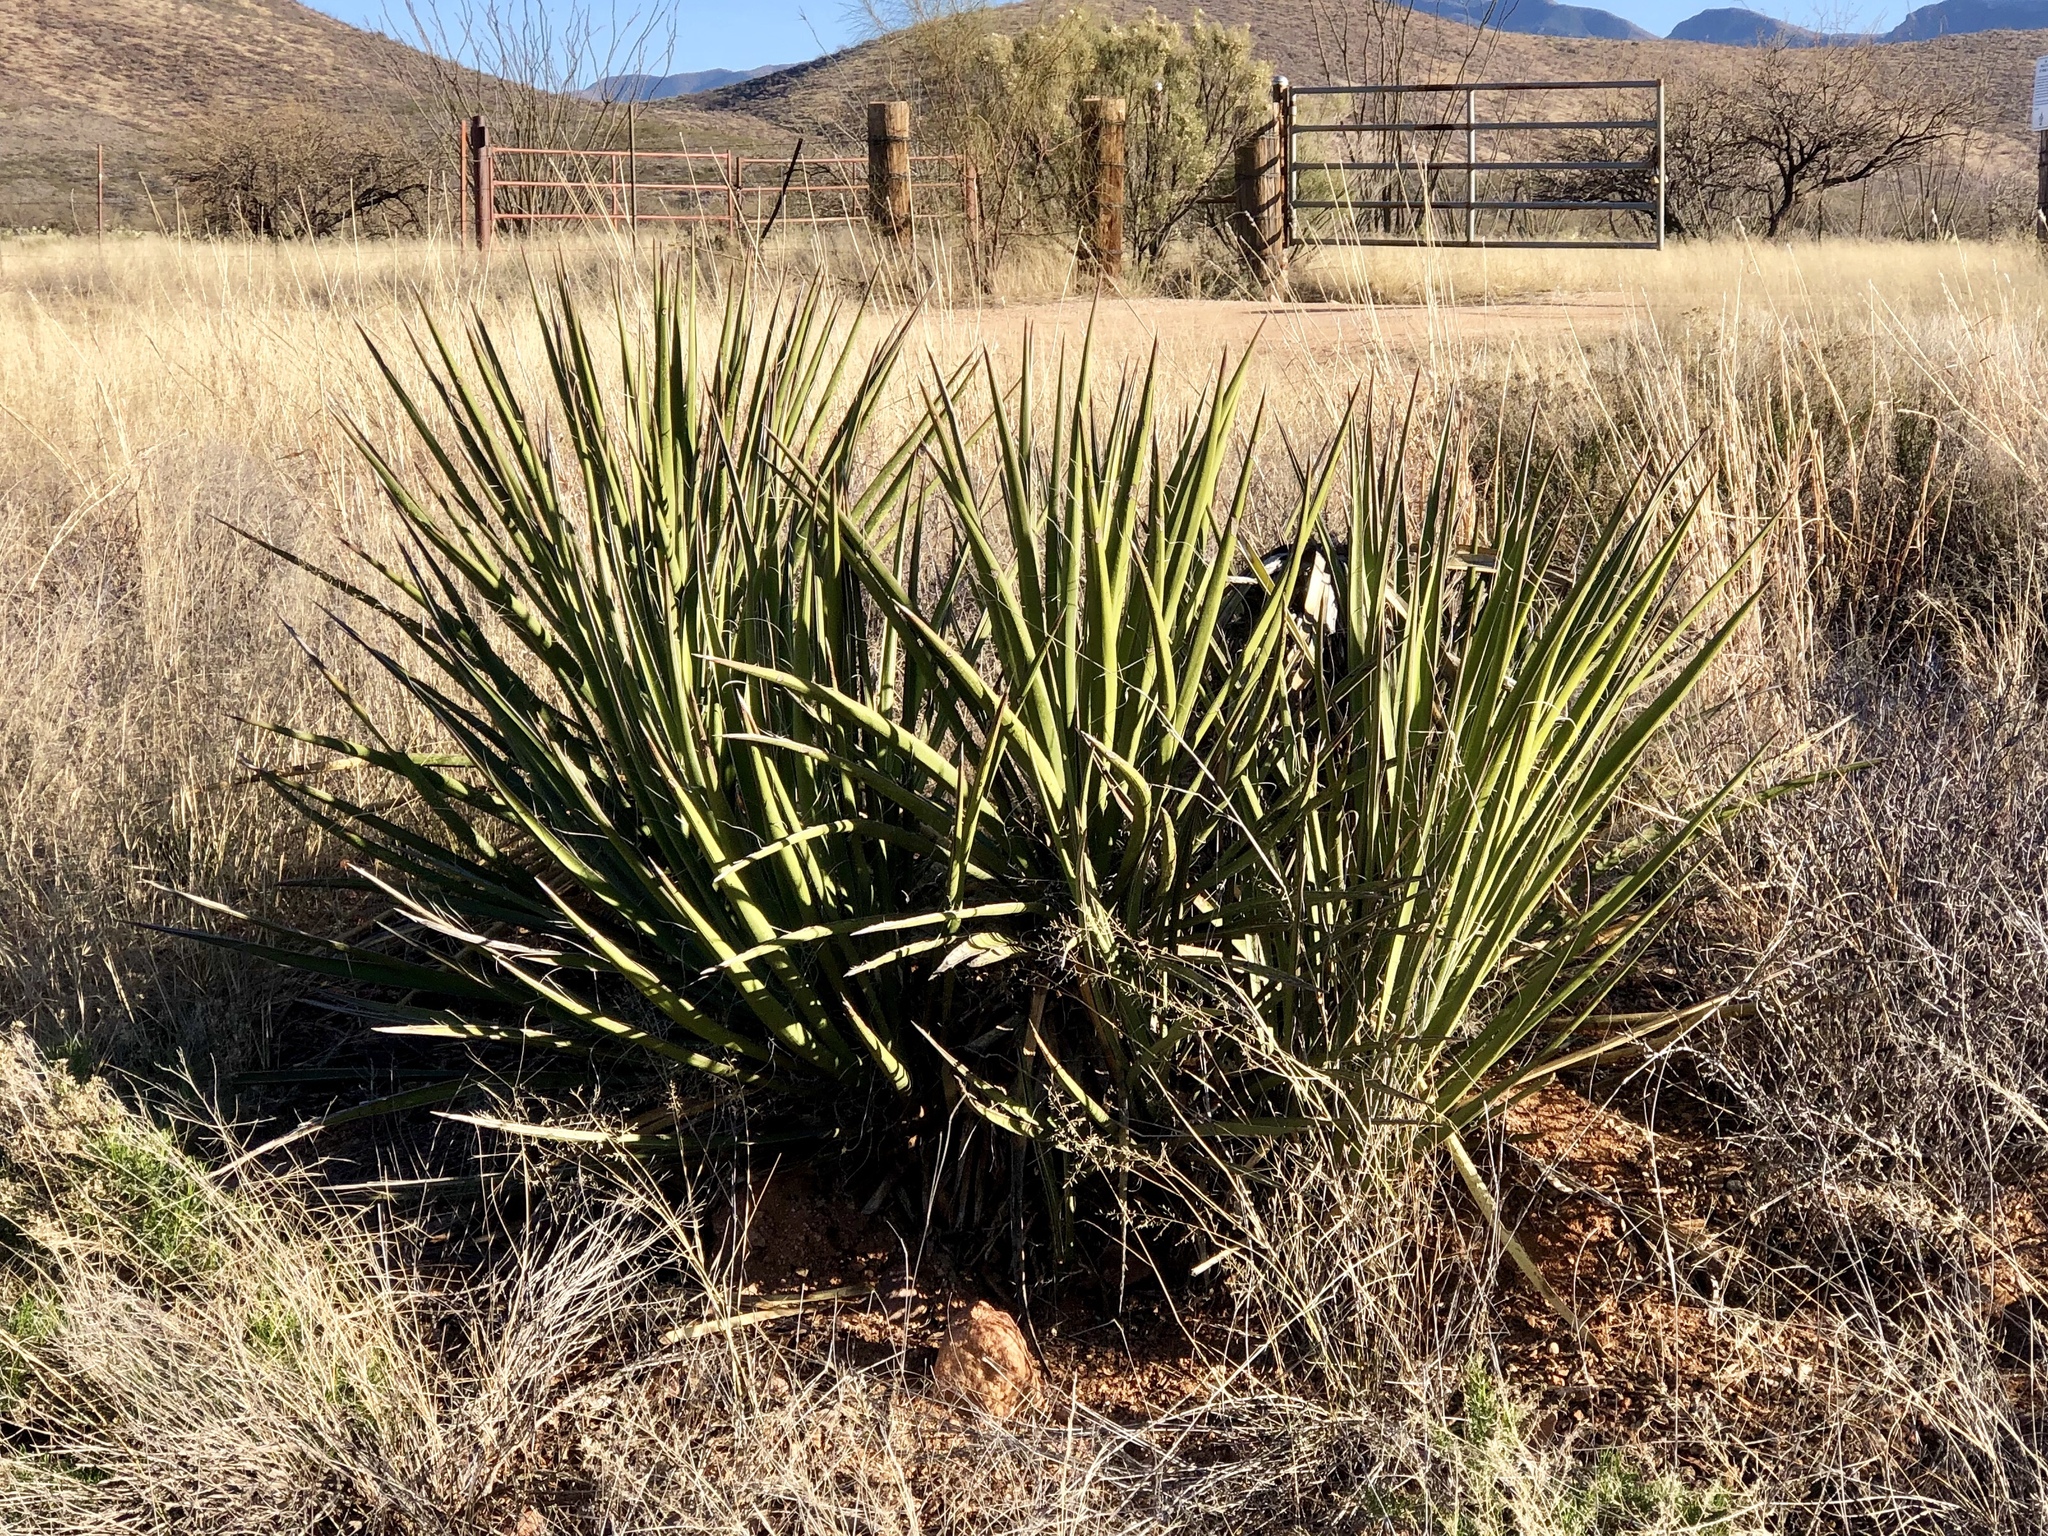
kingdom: Plantae
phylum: Tracheophyta
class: Liliopsida
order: Asparagales
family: Asparagaceae
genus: Yucca
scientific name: Yucca baccata
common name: Banana yucca
